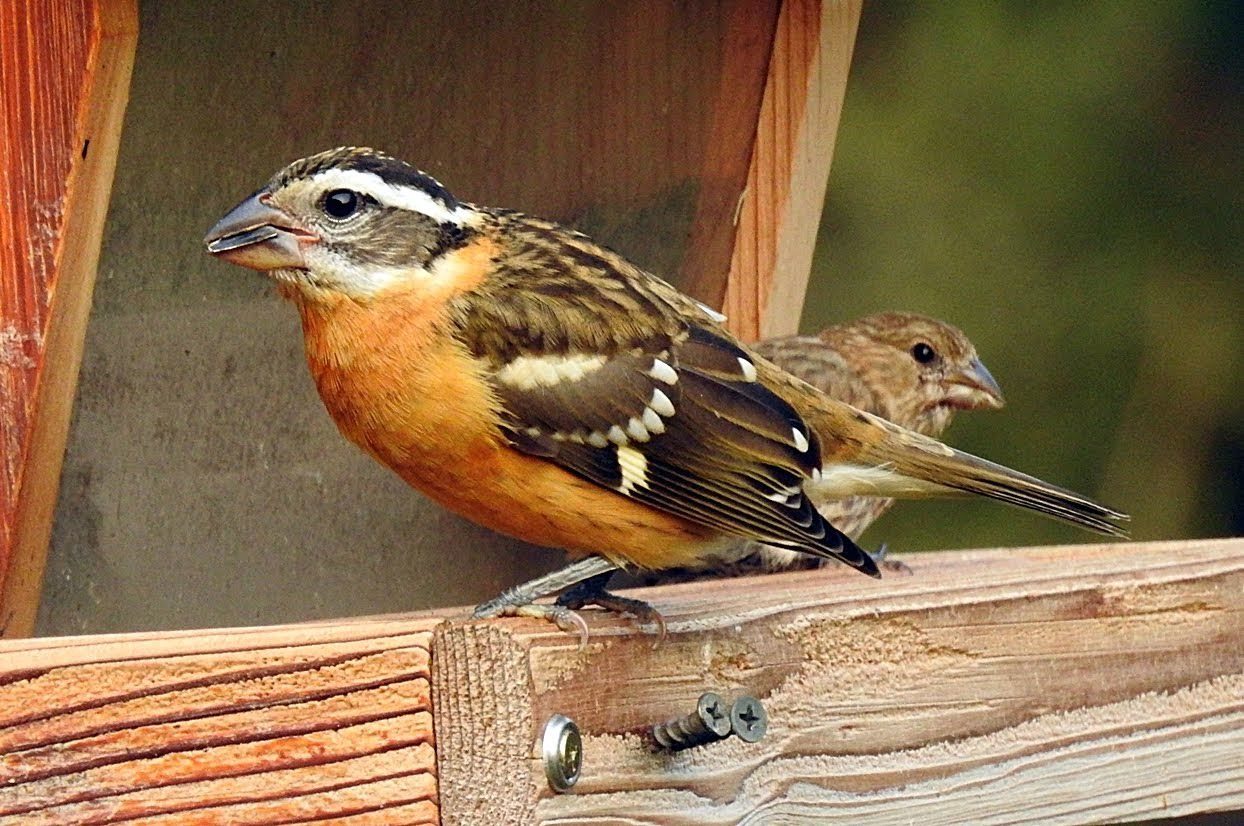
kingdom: Animalia
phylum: Chordata
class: Aves
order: Passeriformes
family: Cardinalidae
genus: Pheucticus
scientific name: Pheucticus melanocephalus
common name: Black-headed grosbeak
